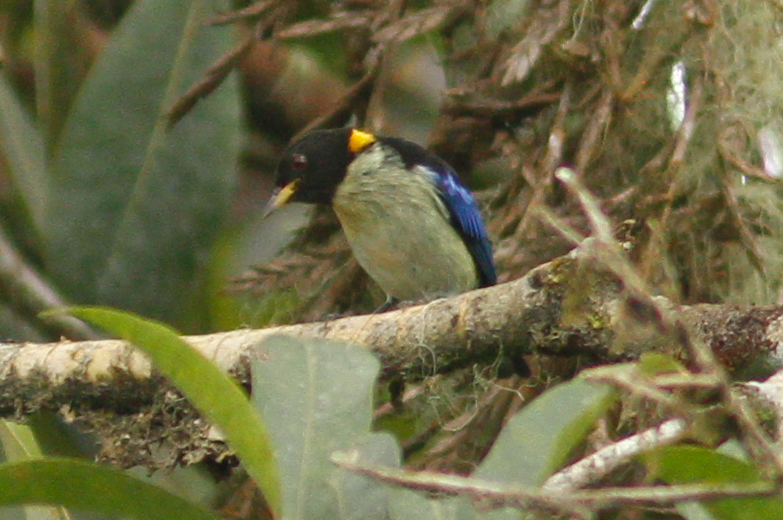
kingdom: Animalia
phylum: Chordata
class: Aves
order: Passeriformes
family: Thraupidae
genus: Iridophanes
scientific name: Iridophanes pulcherrimus
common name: Golden-collared honeycreeper
